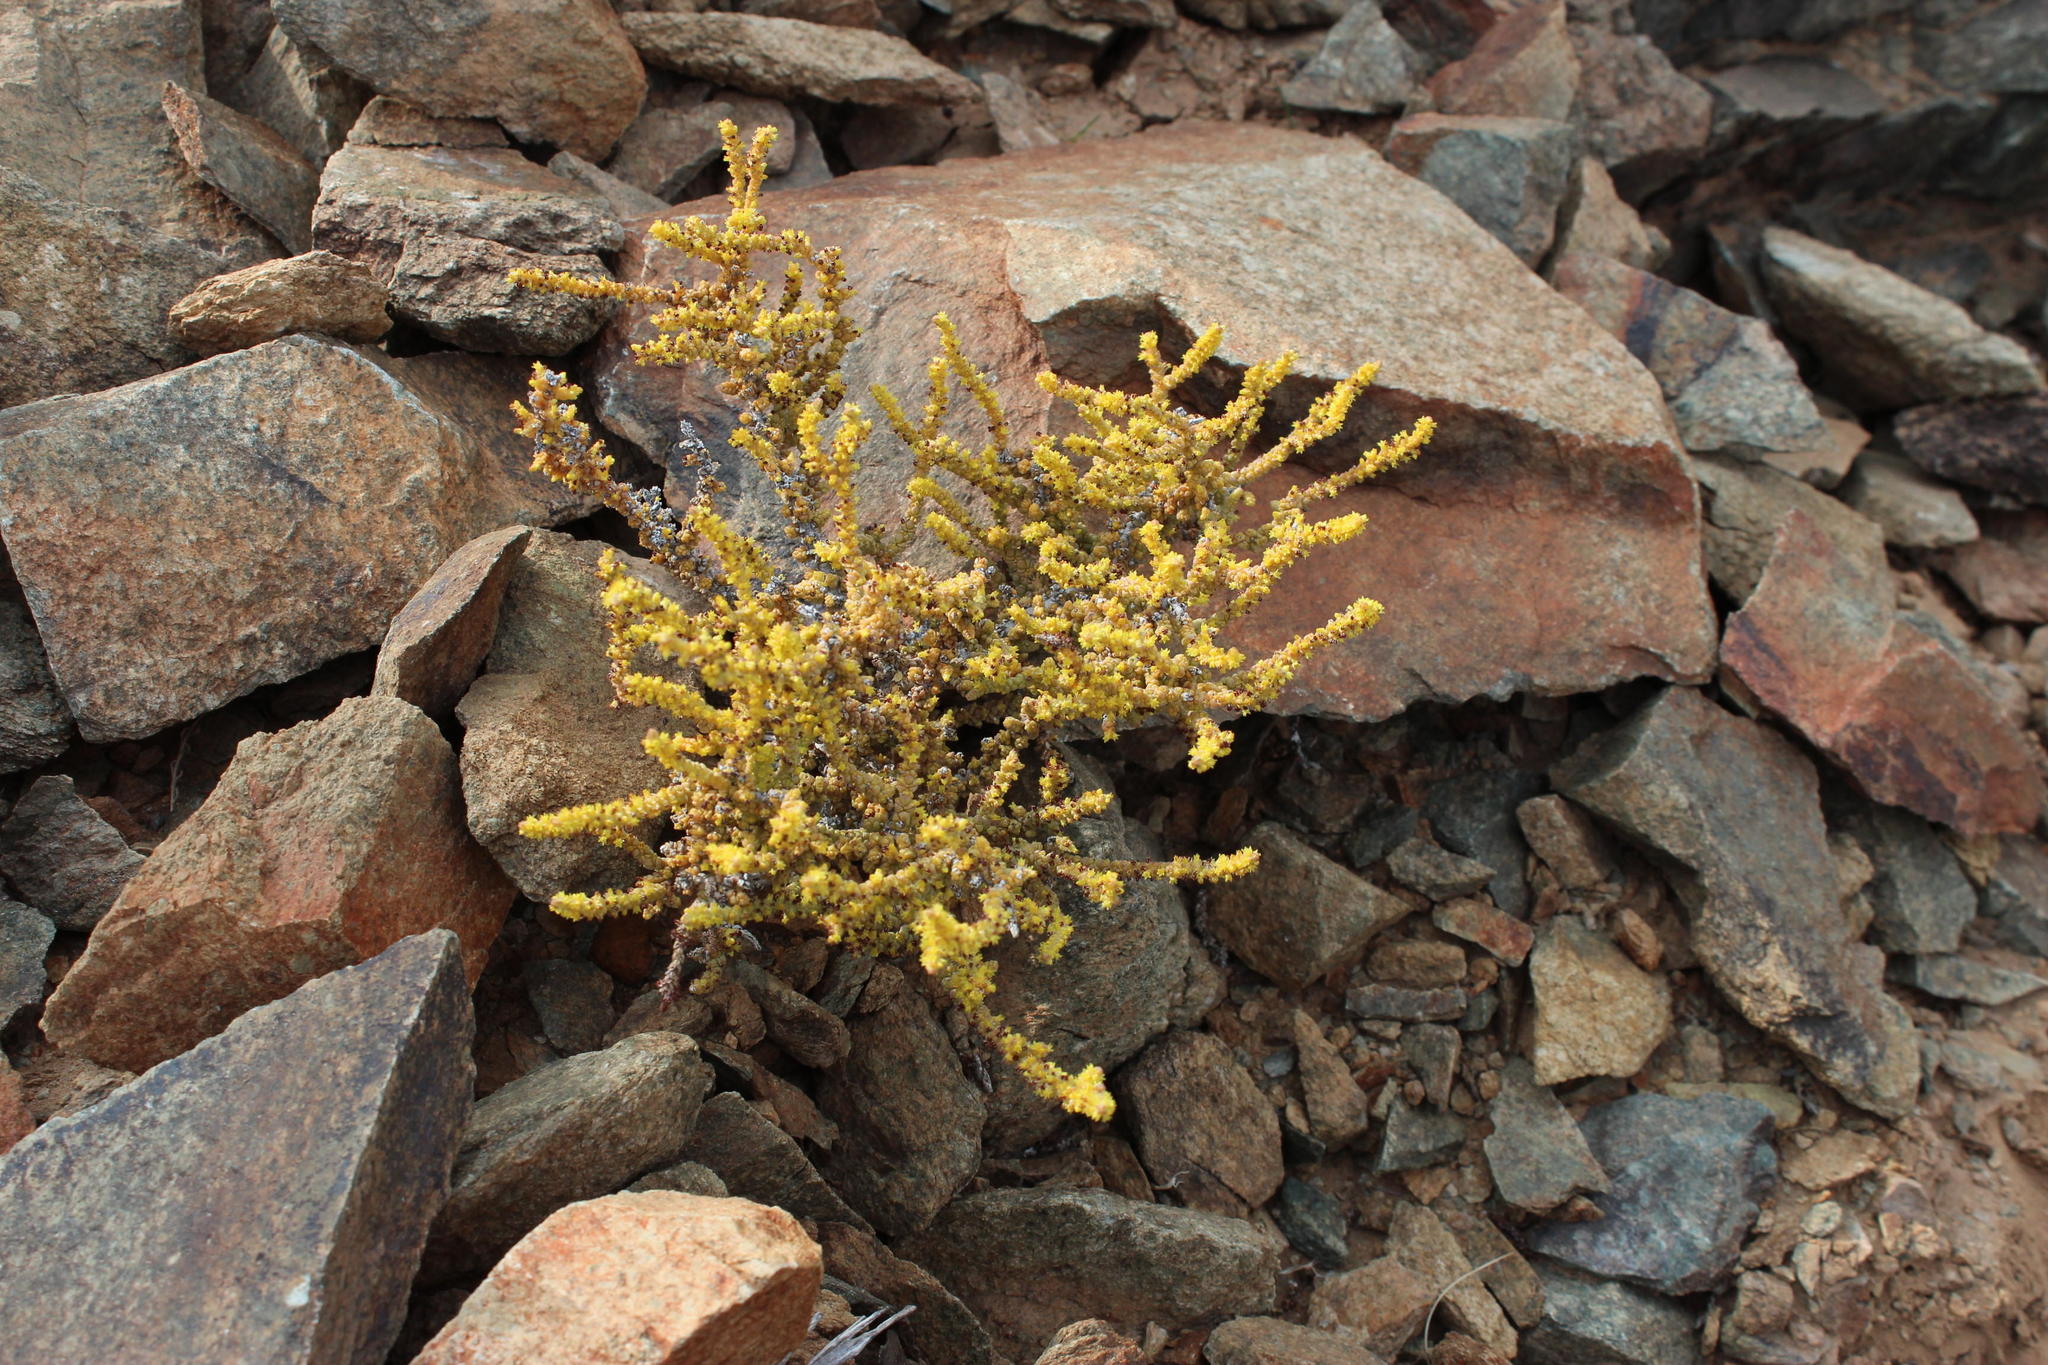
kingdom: Plantae
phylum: Tracheophyta
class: Magnoliopsida
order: Saxifragales
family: Crassulaceae
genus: Crassula
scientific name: Crassula muscosa
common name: Toy-cypress
